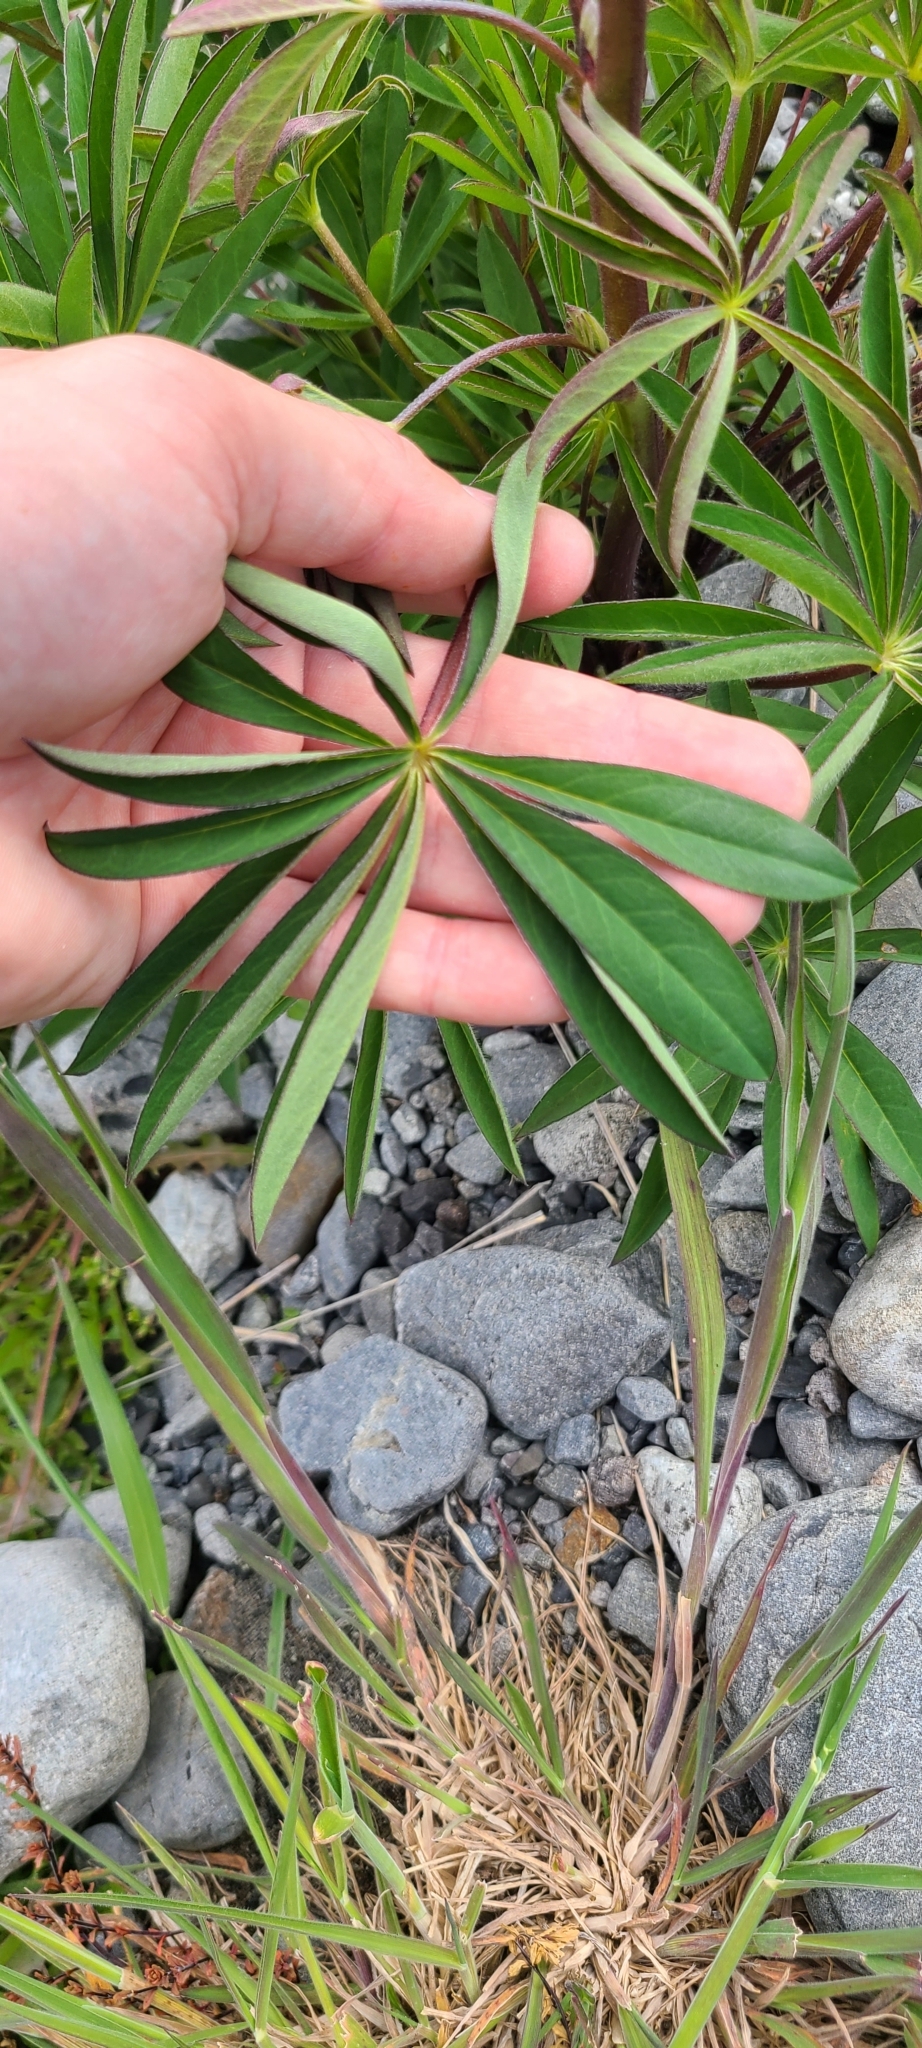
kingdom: Plantae
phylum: Tracheophyta
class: Magnoliopsida
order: Fabales
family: Fabaceae
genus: Lupinus
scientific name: Lupinus polyphyllus
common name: Garden lupin
